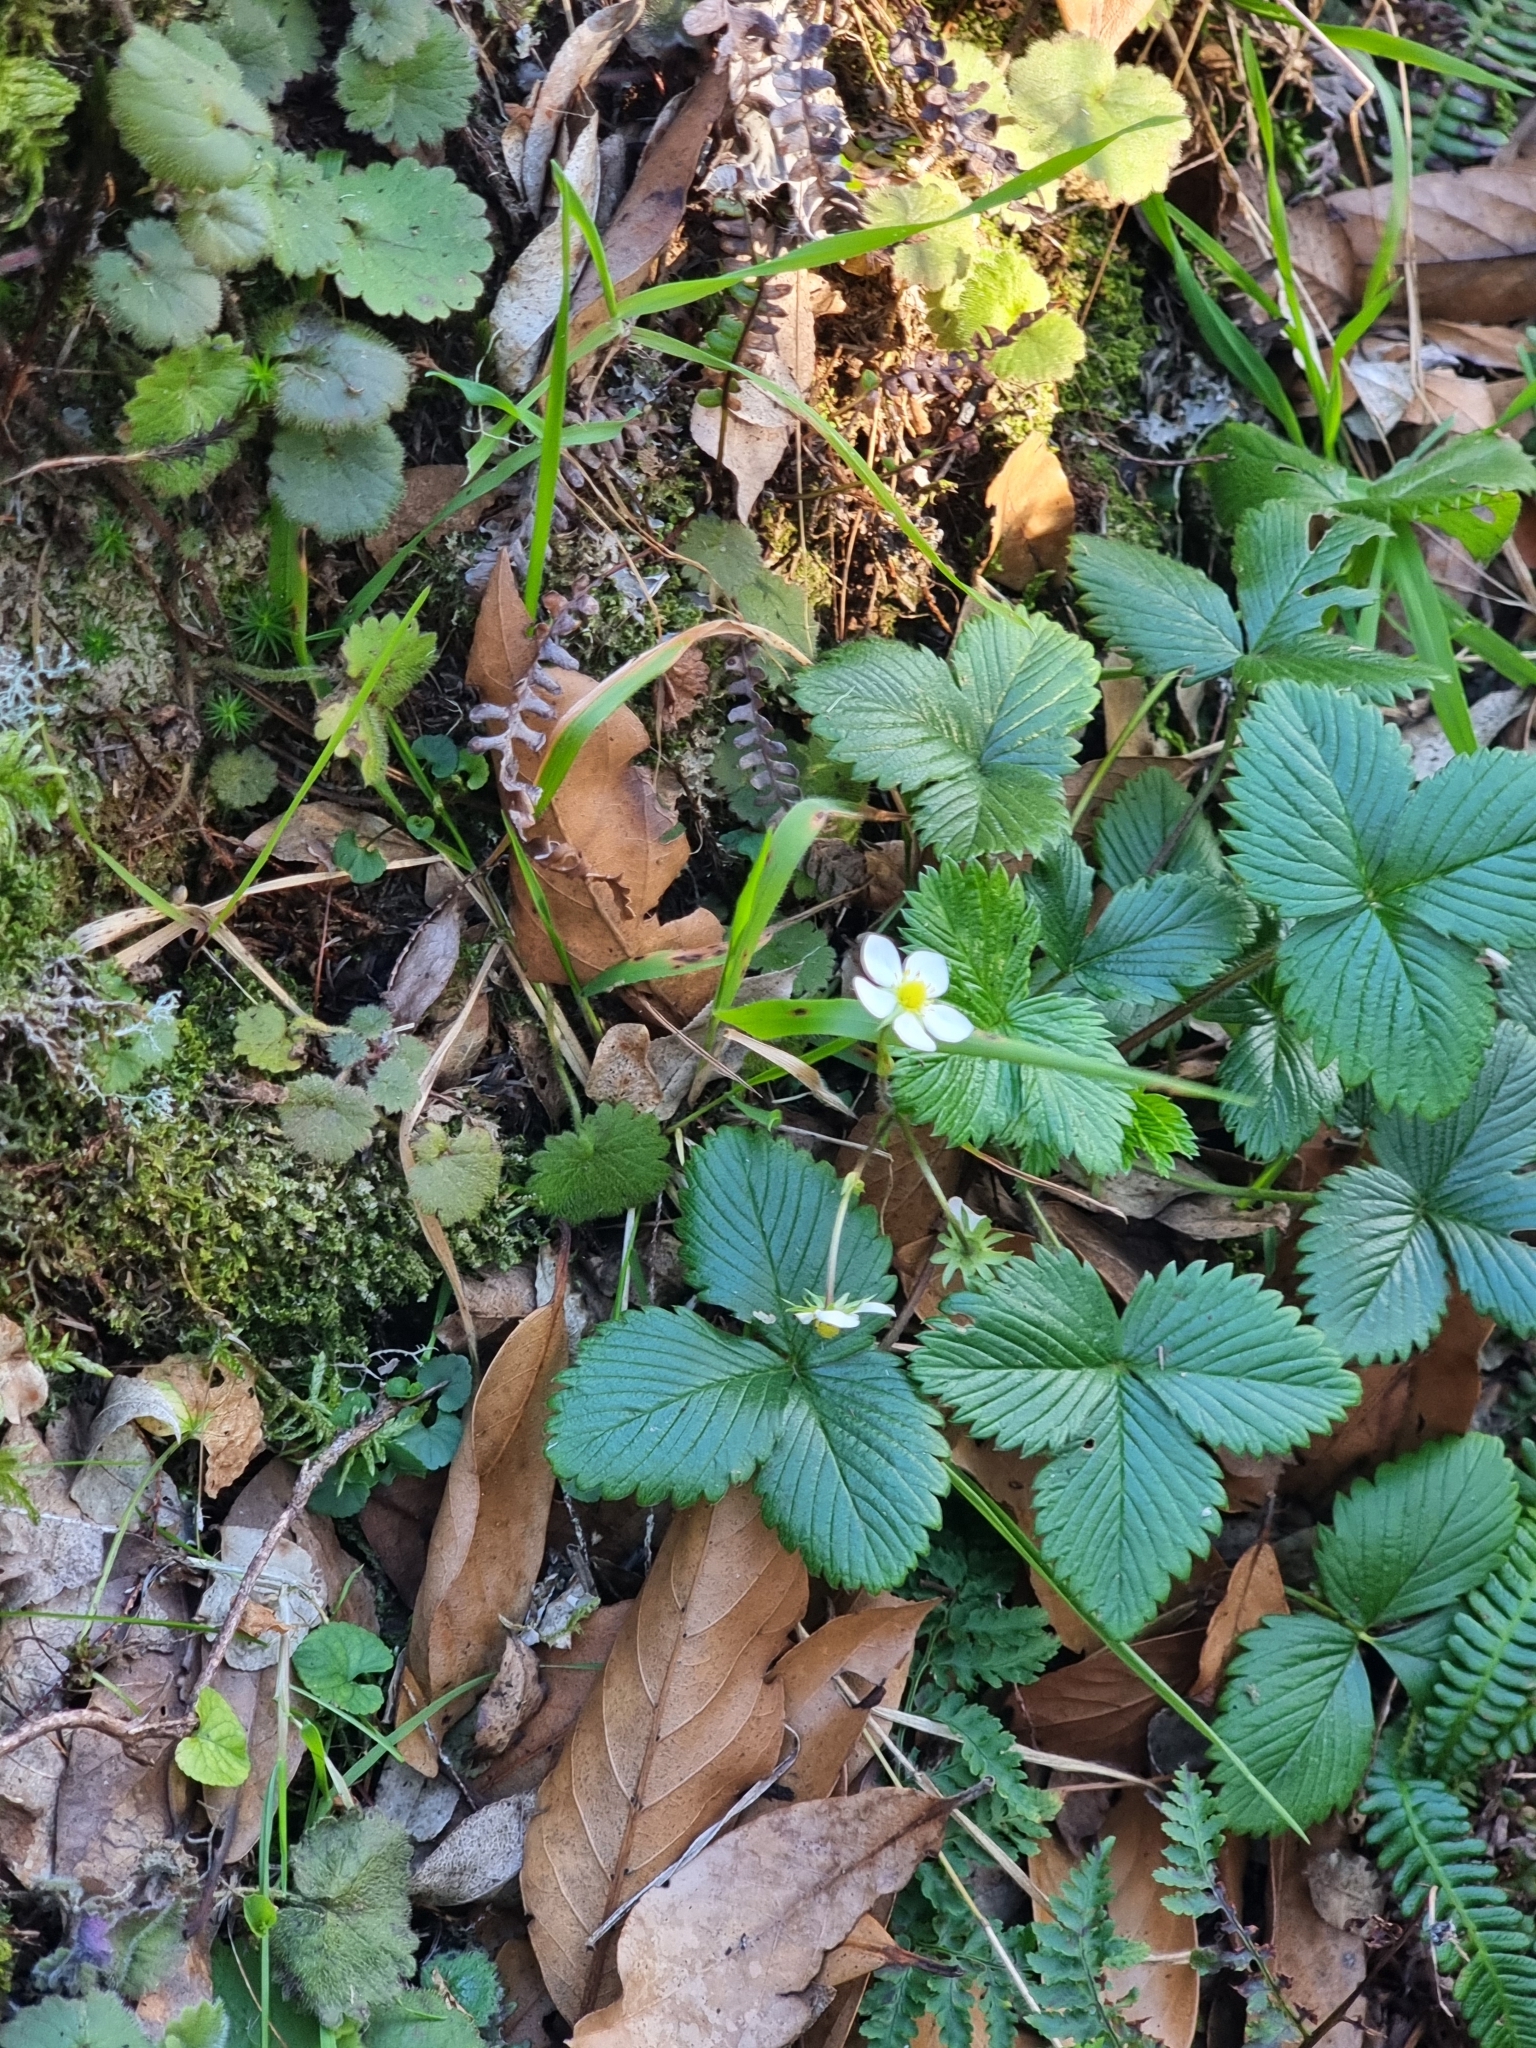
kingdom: Plantae
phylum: Tracheophyta
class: Magnoliopsida
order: Rosales
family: Rosaceae
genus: Fragaria
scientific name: Fragaria vesca
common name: Wild strawberry
